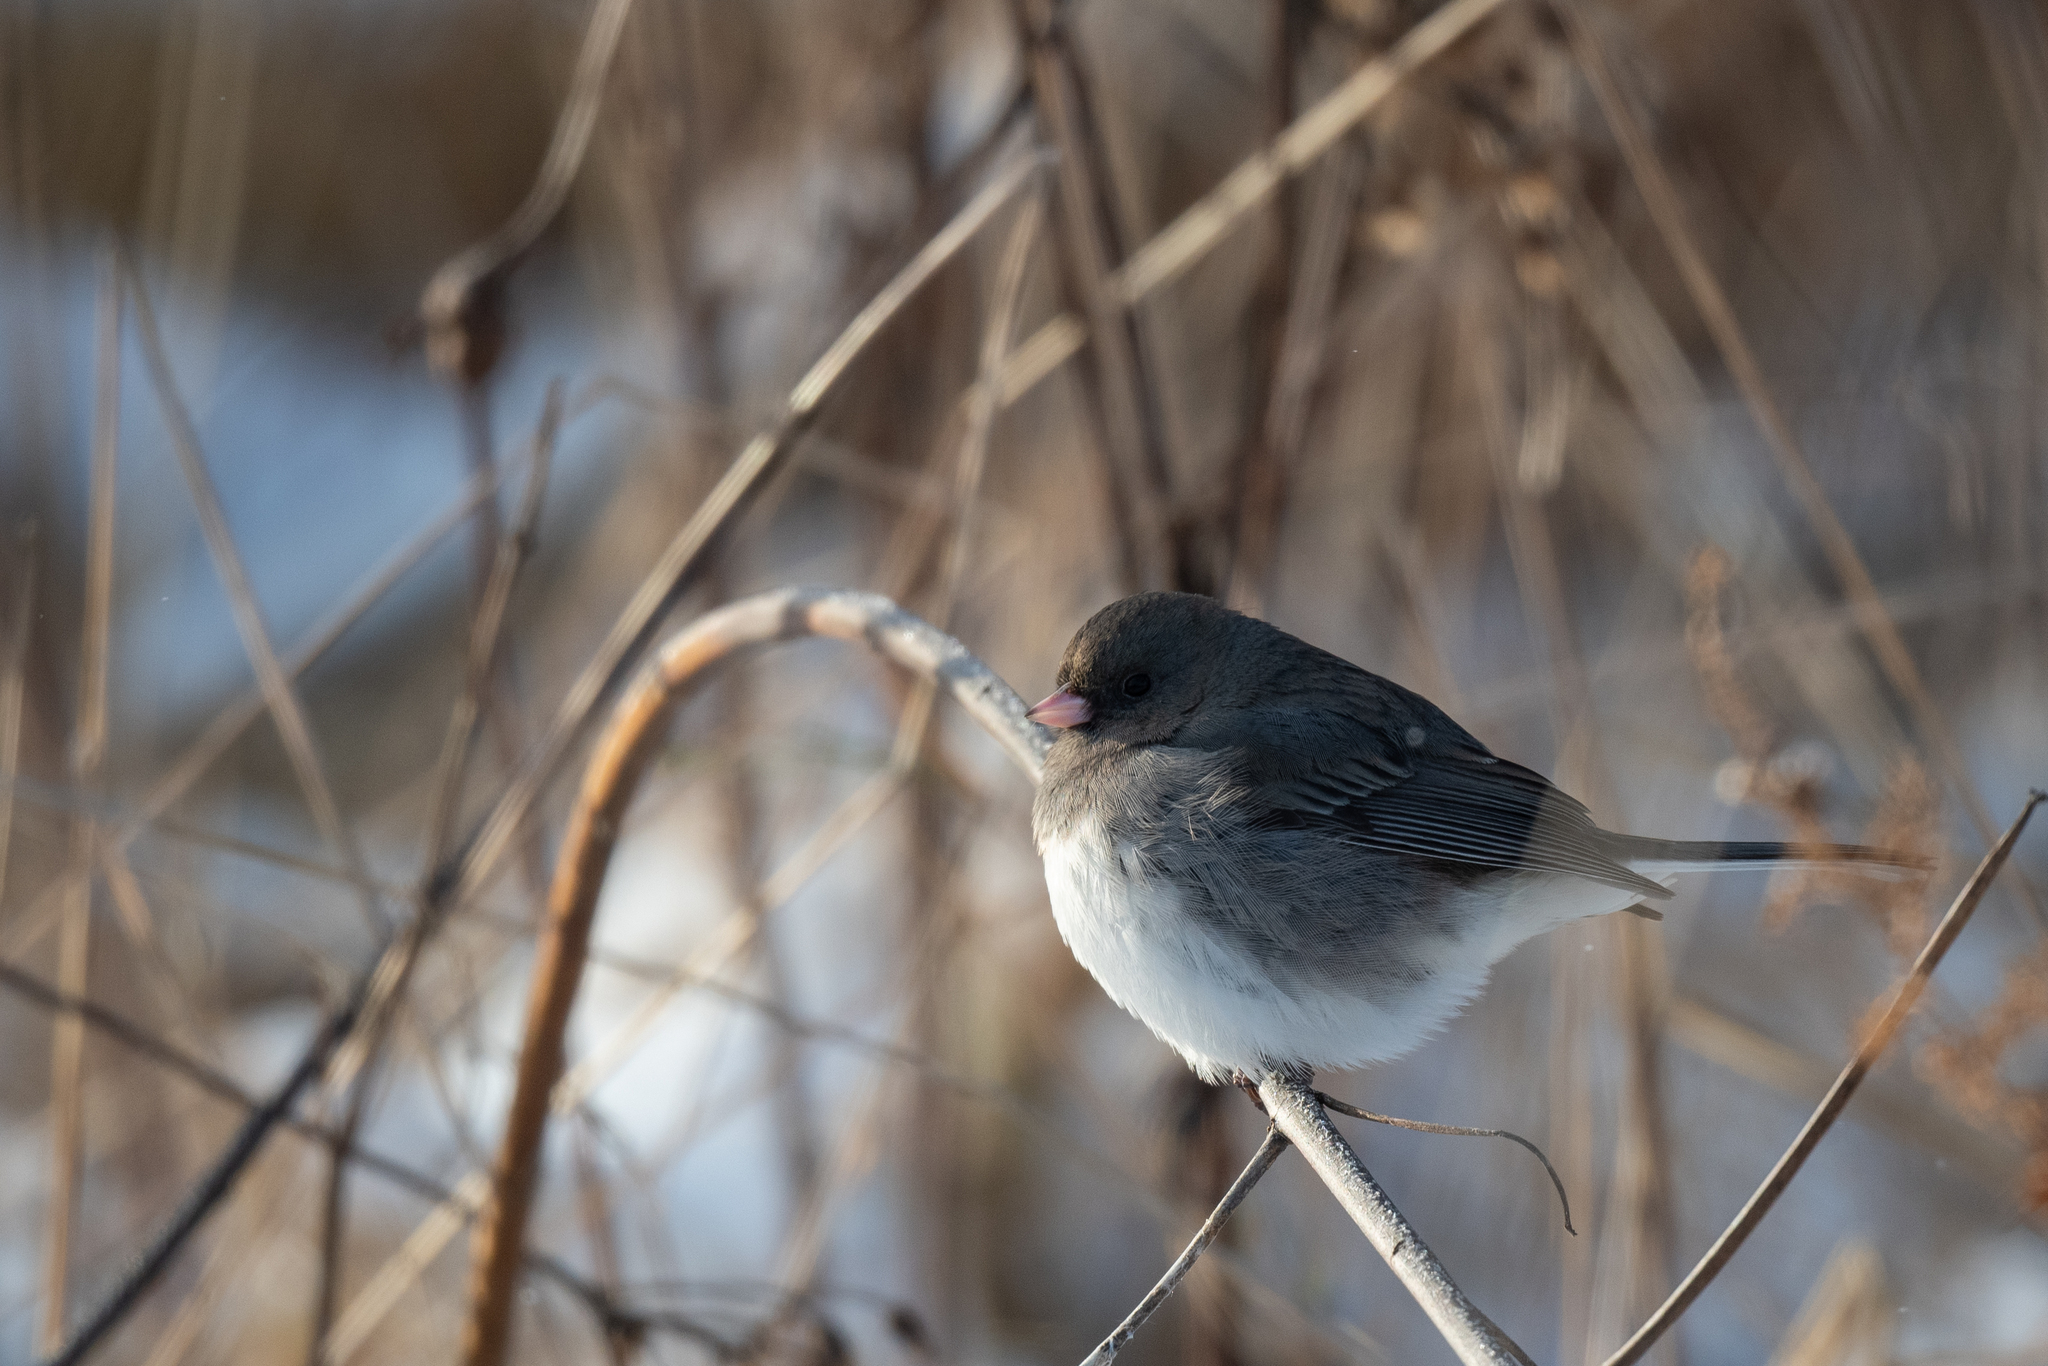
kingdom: Animalia
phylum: Chordata
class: Aves
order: Passeriformes
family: Passerellidae
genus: Junco
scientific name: Junco hyemalis
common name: Dark-eyed junco
